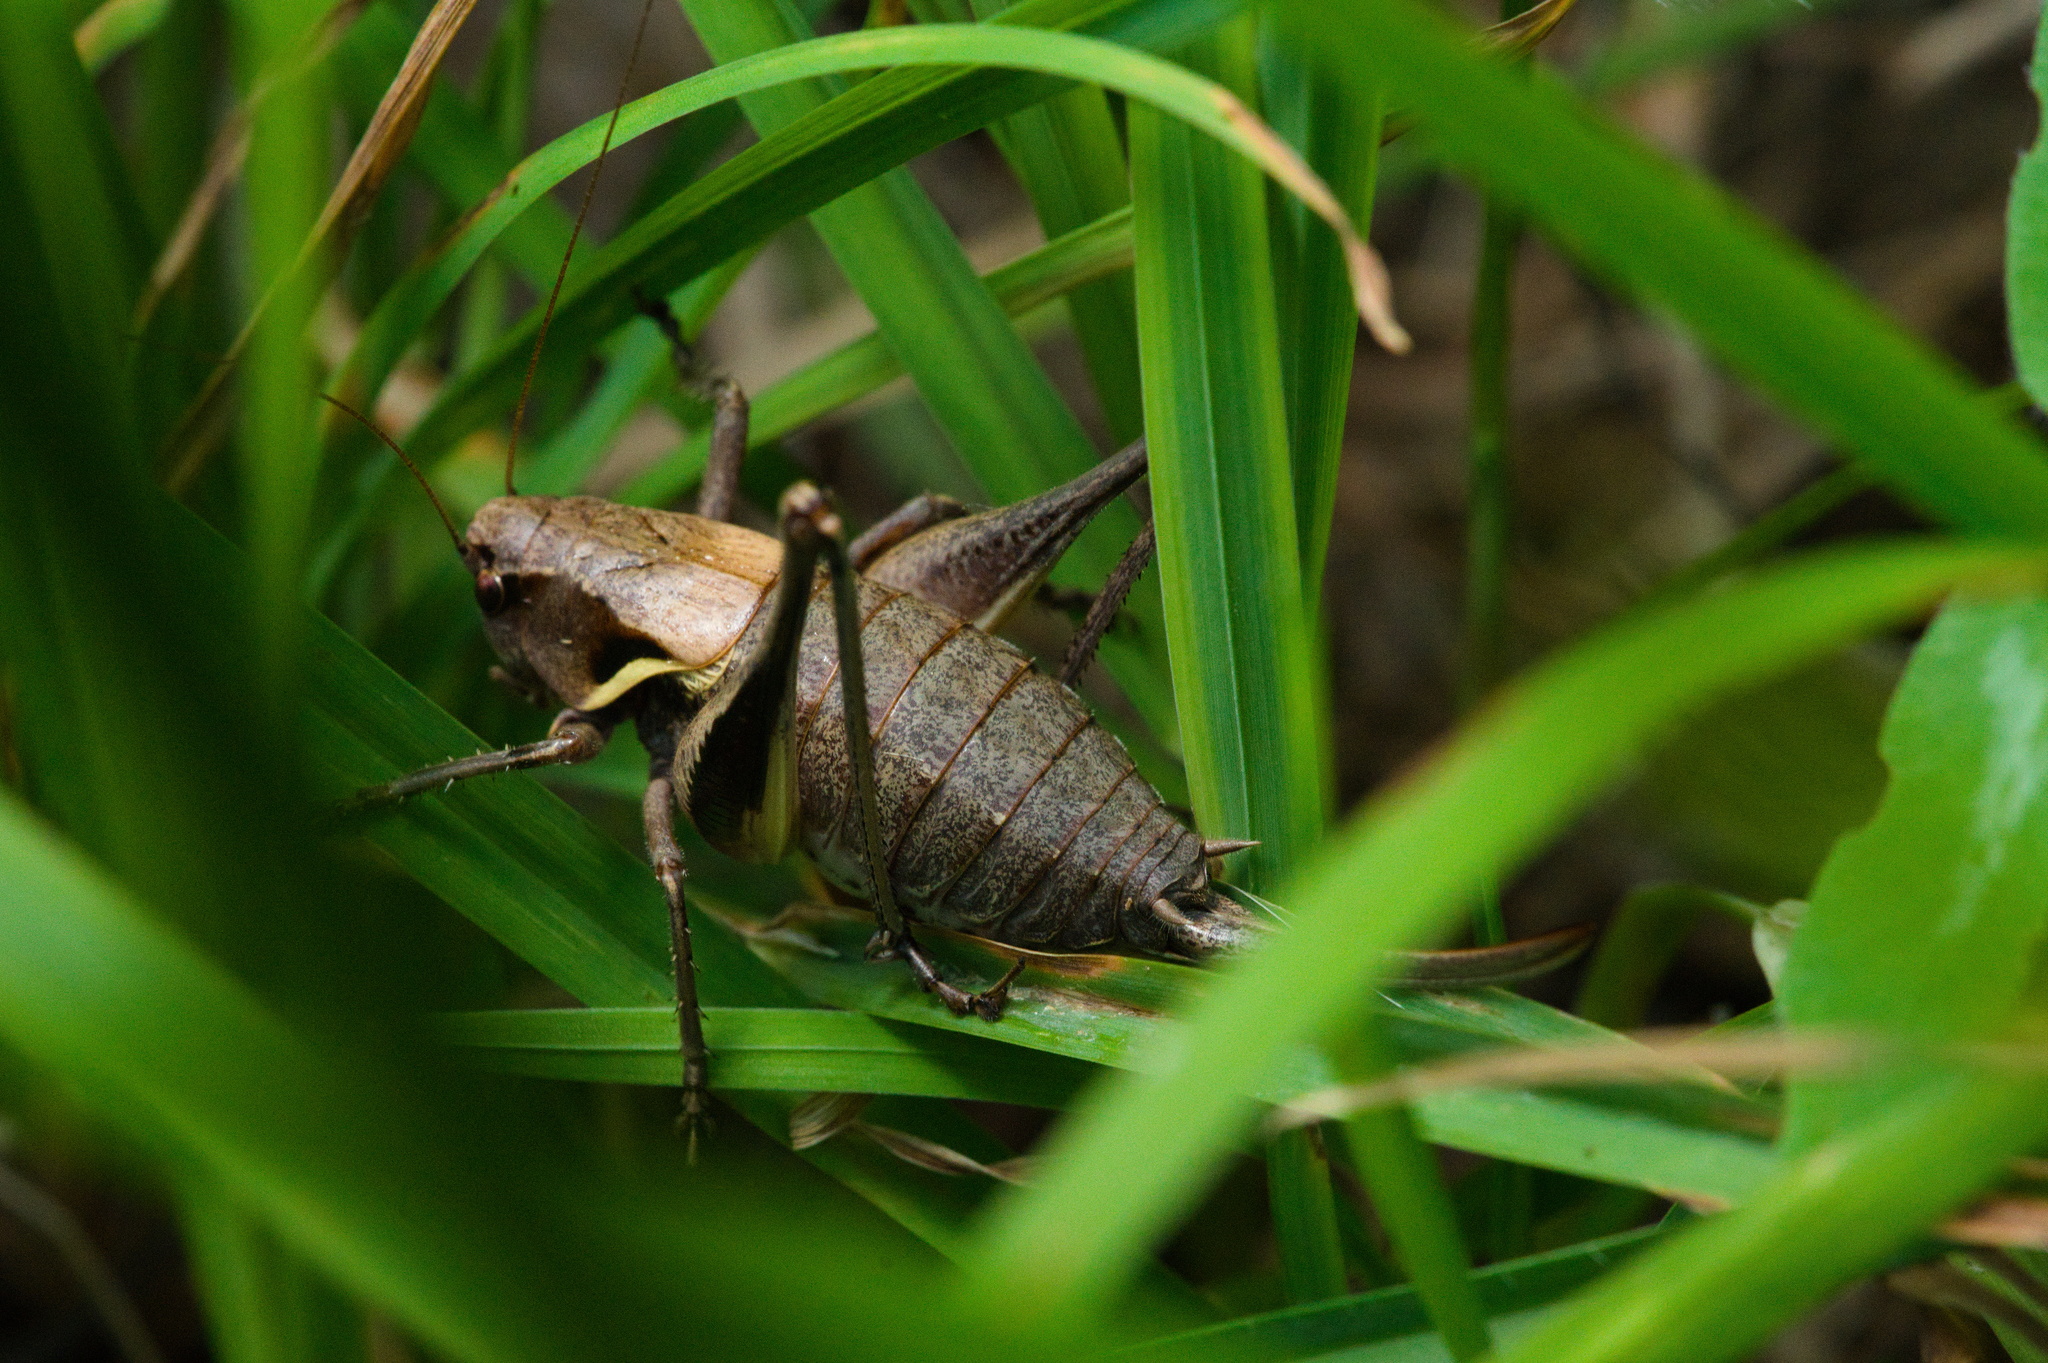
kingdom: Animalia
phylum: Arthropoda
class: Insecta
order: Orthoptera
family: Tettigoniidae
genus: Pholidoptera
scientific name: Pholidoptera aptera
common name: Alpine dark bush-cricket
